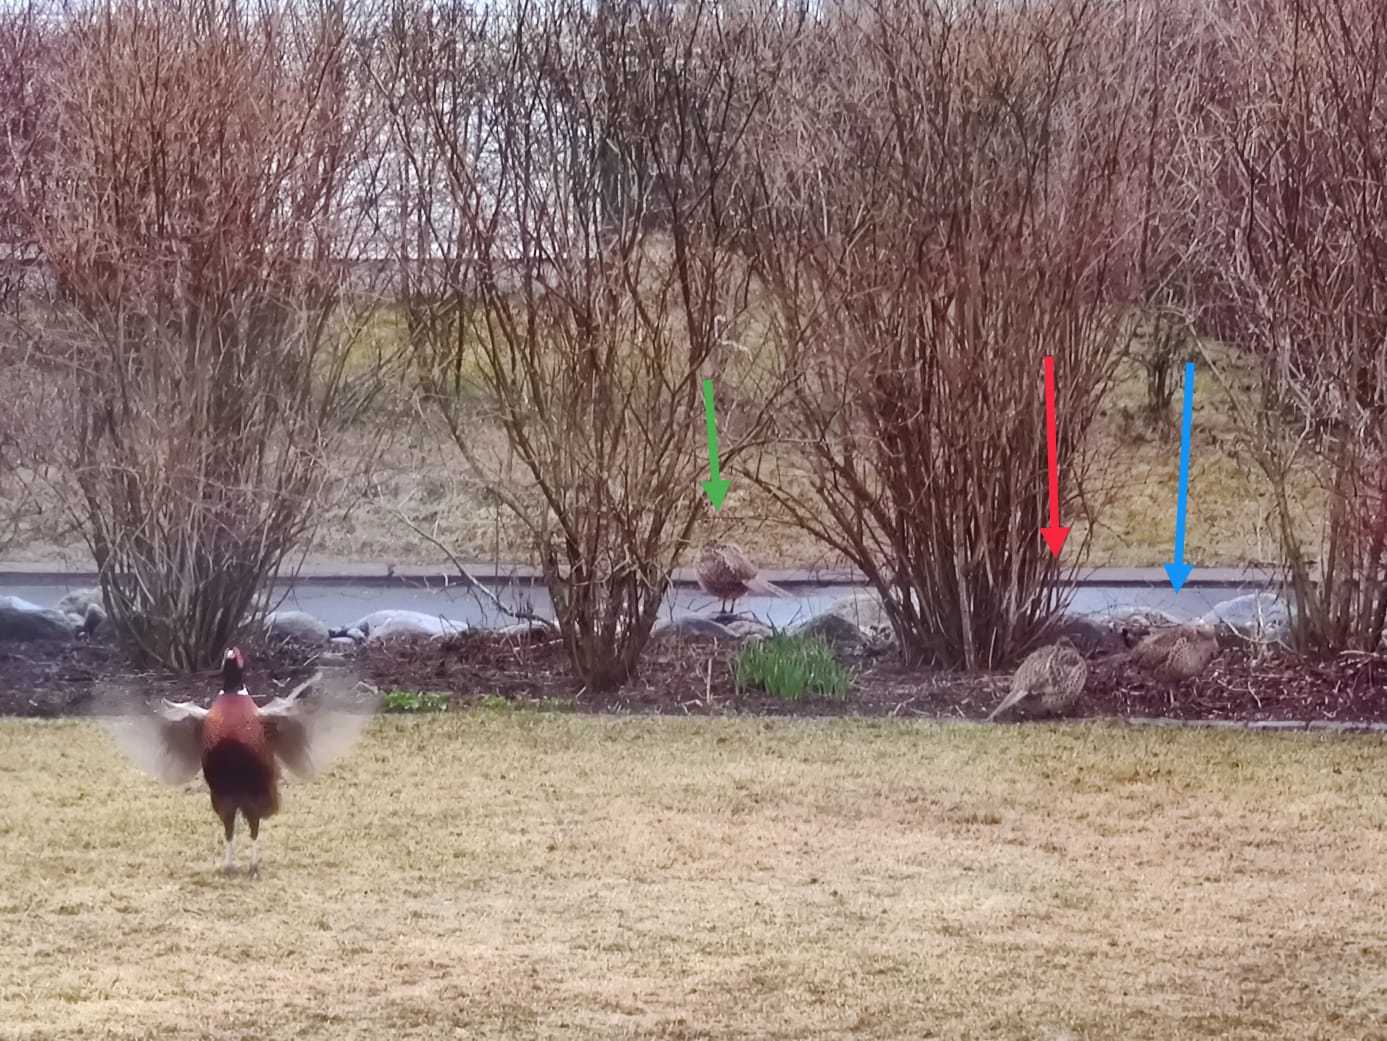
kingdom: Animalia
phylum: Chordata
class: Aves
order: Galliformes
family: Phasianidae
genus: Phasianus
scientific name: Phasianus colchicus
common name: Common pheasant
